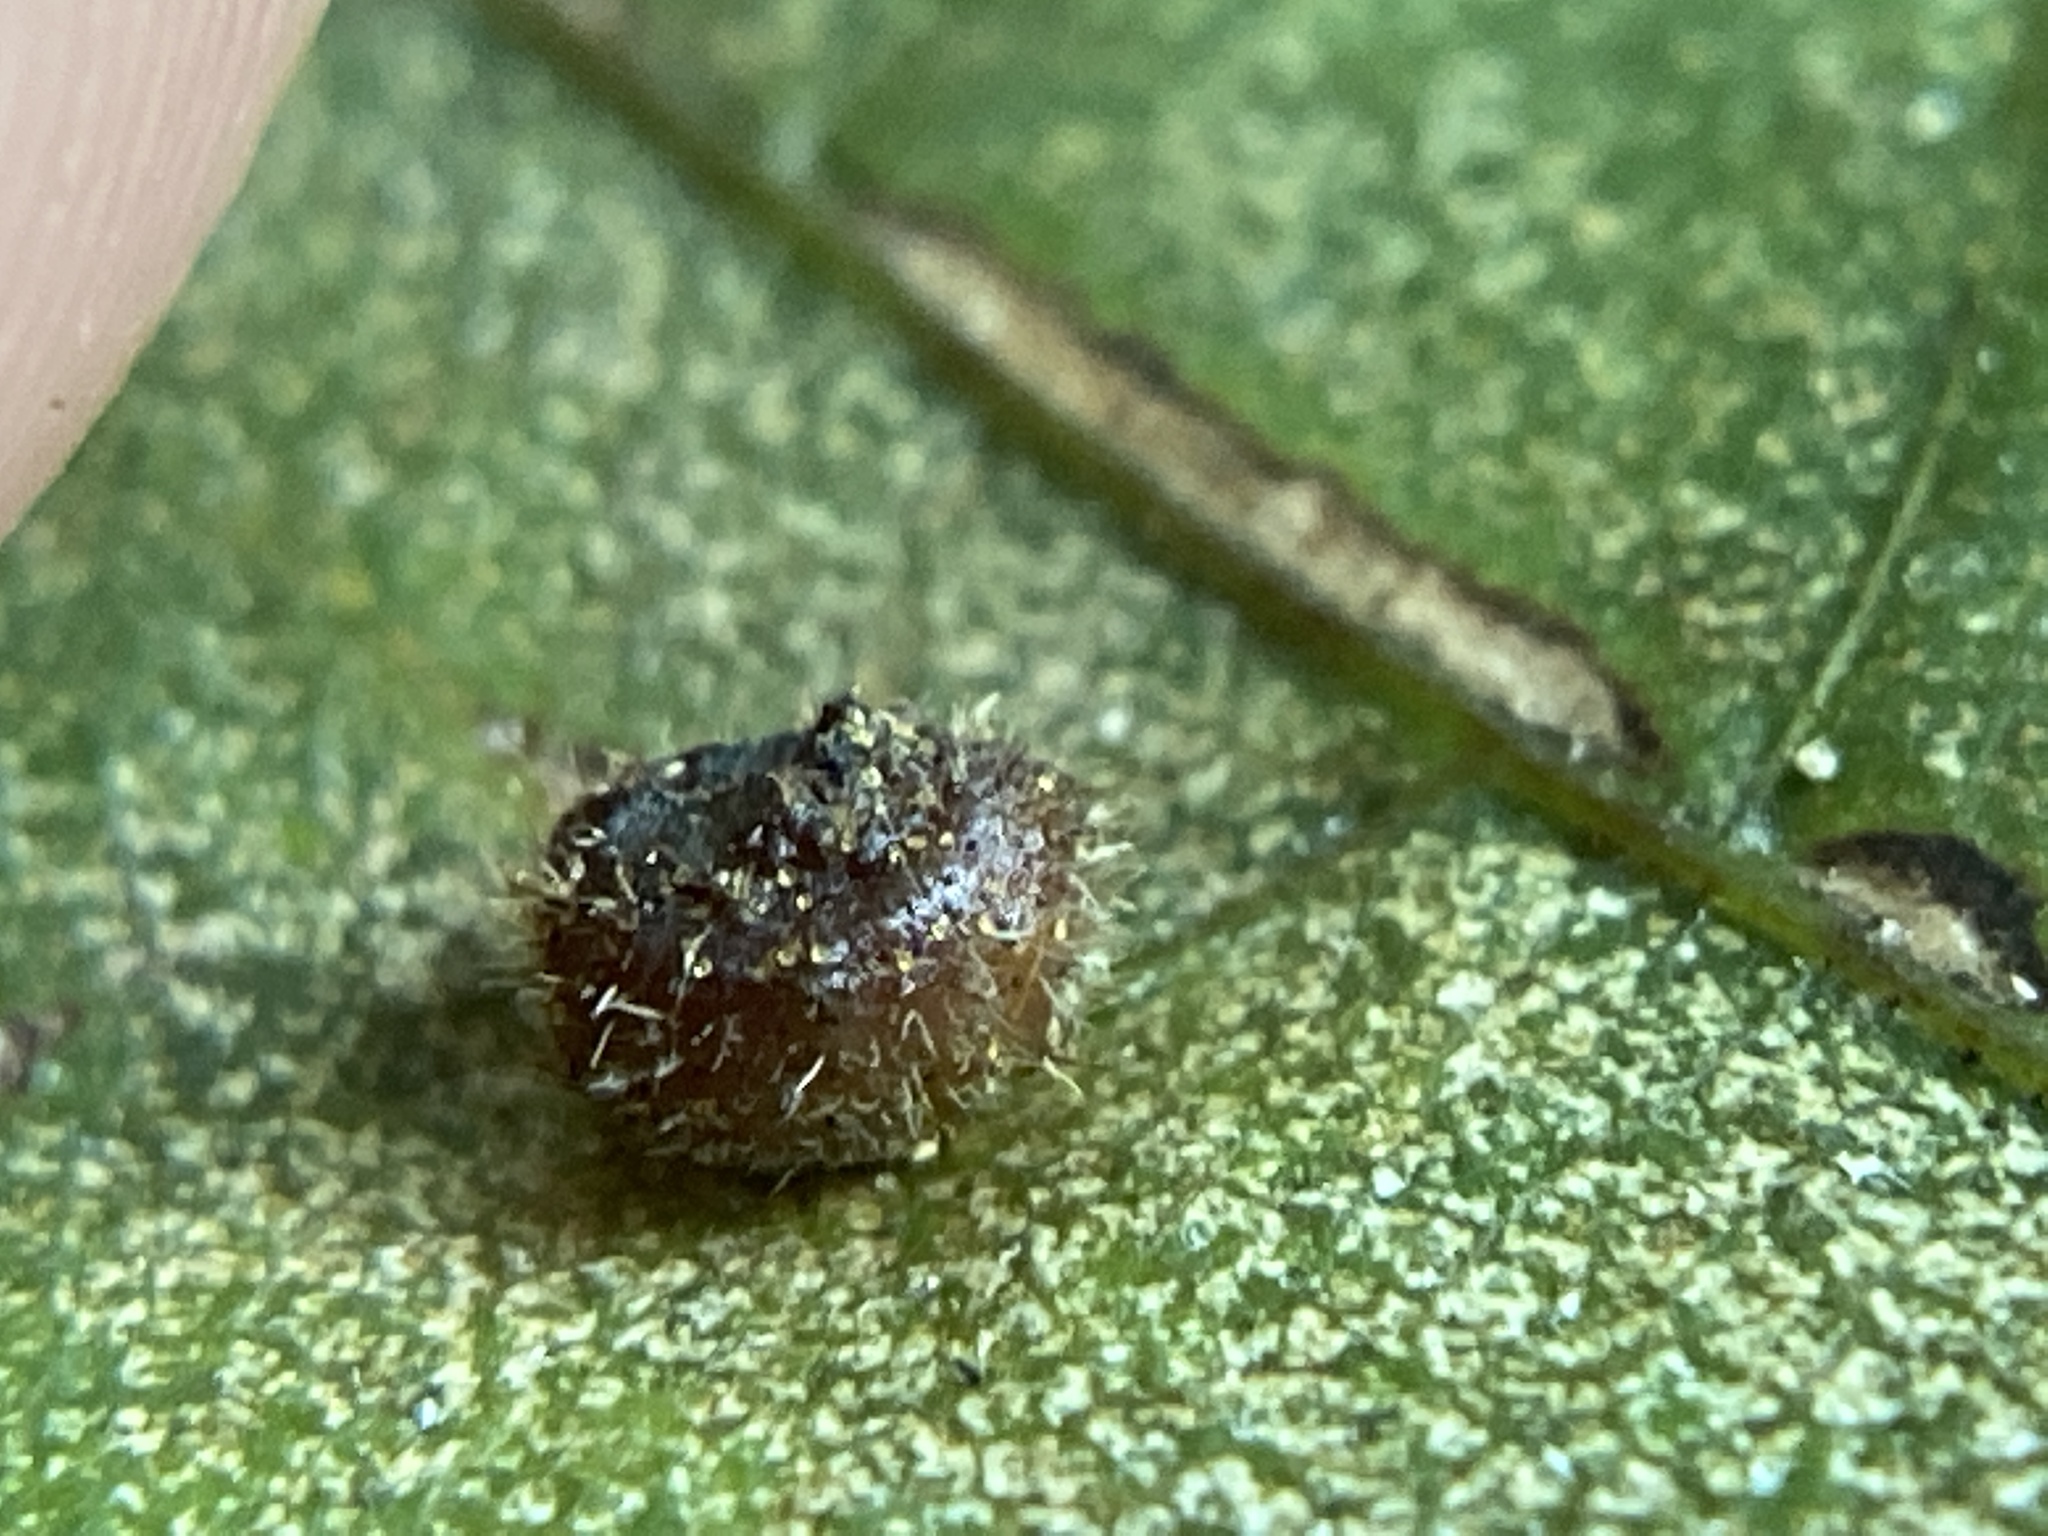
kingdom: Animalia
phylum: Arthropoda
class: Insecta
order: Diptera
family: Cecidomyiidae
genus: Caryomyia
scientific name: Caryomyia turbanella
